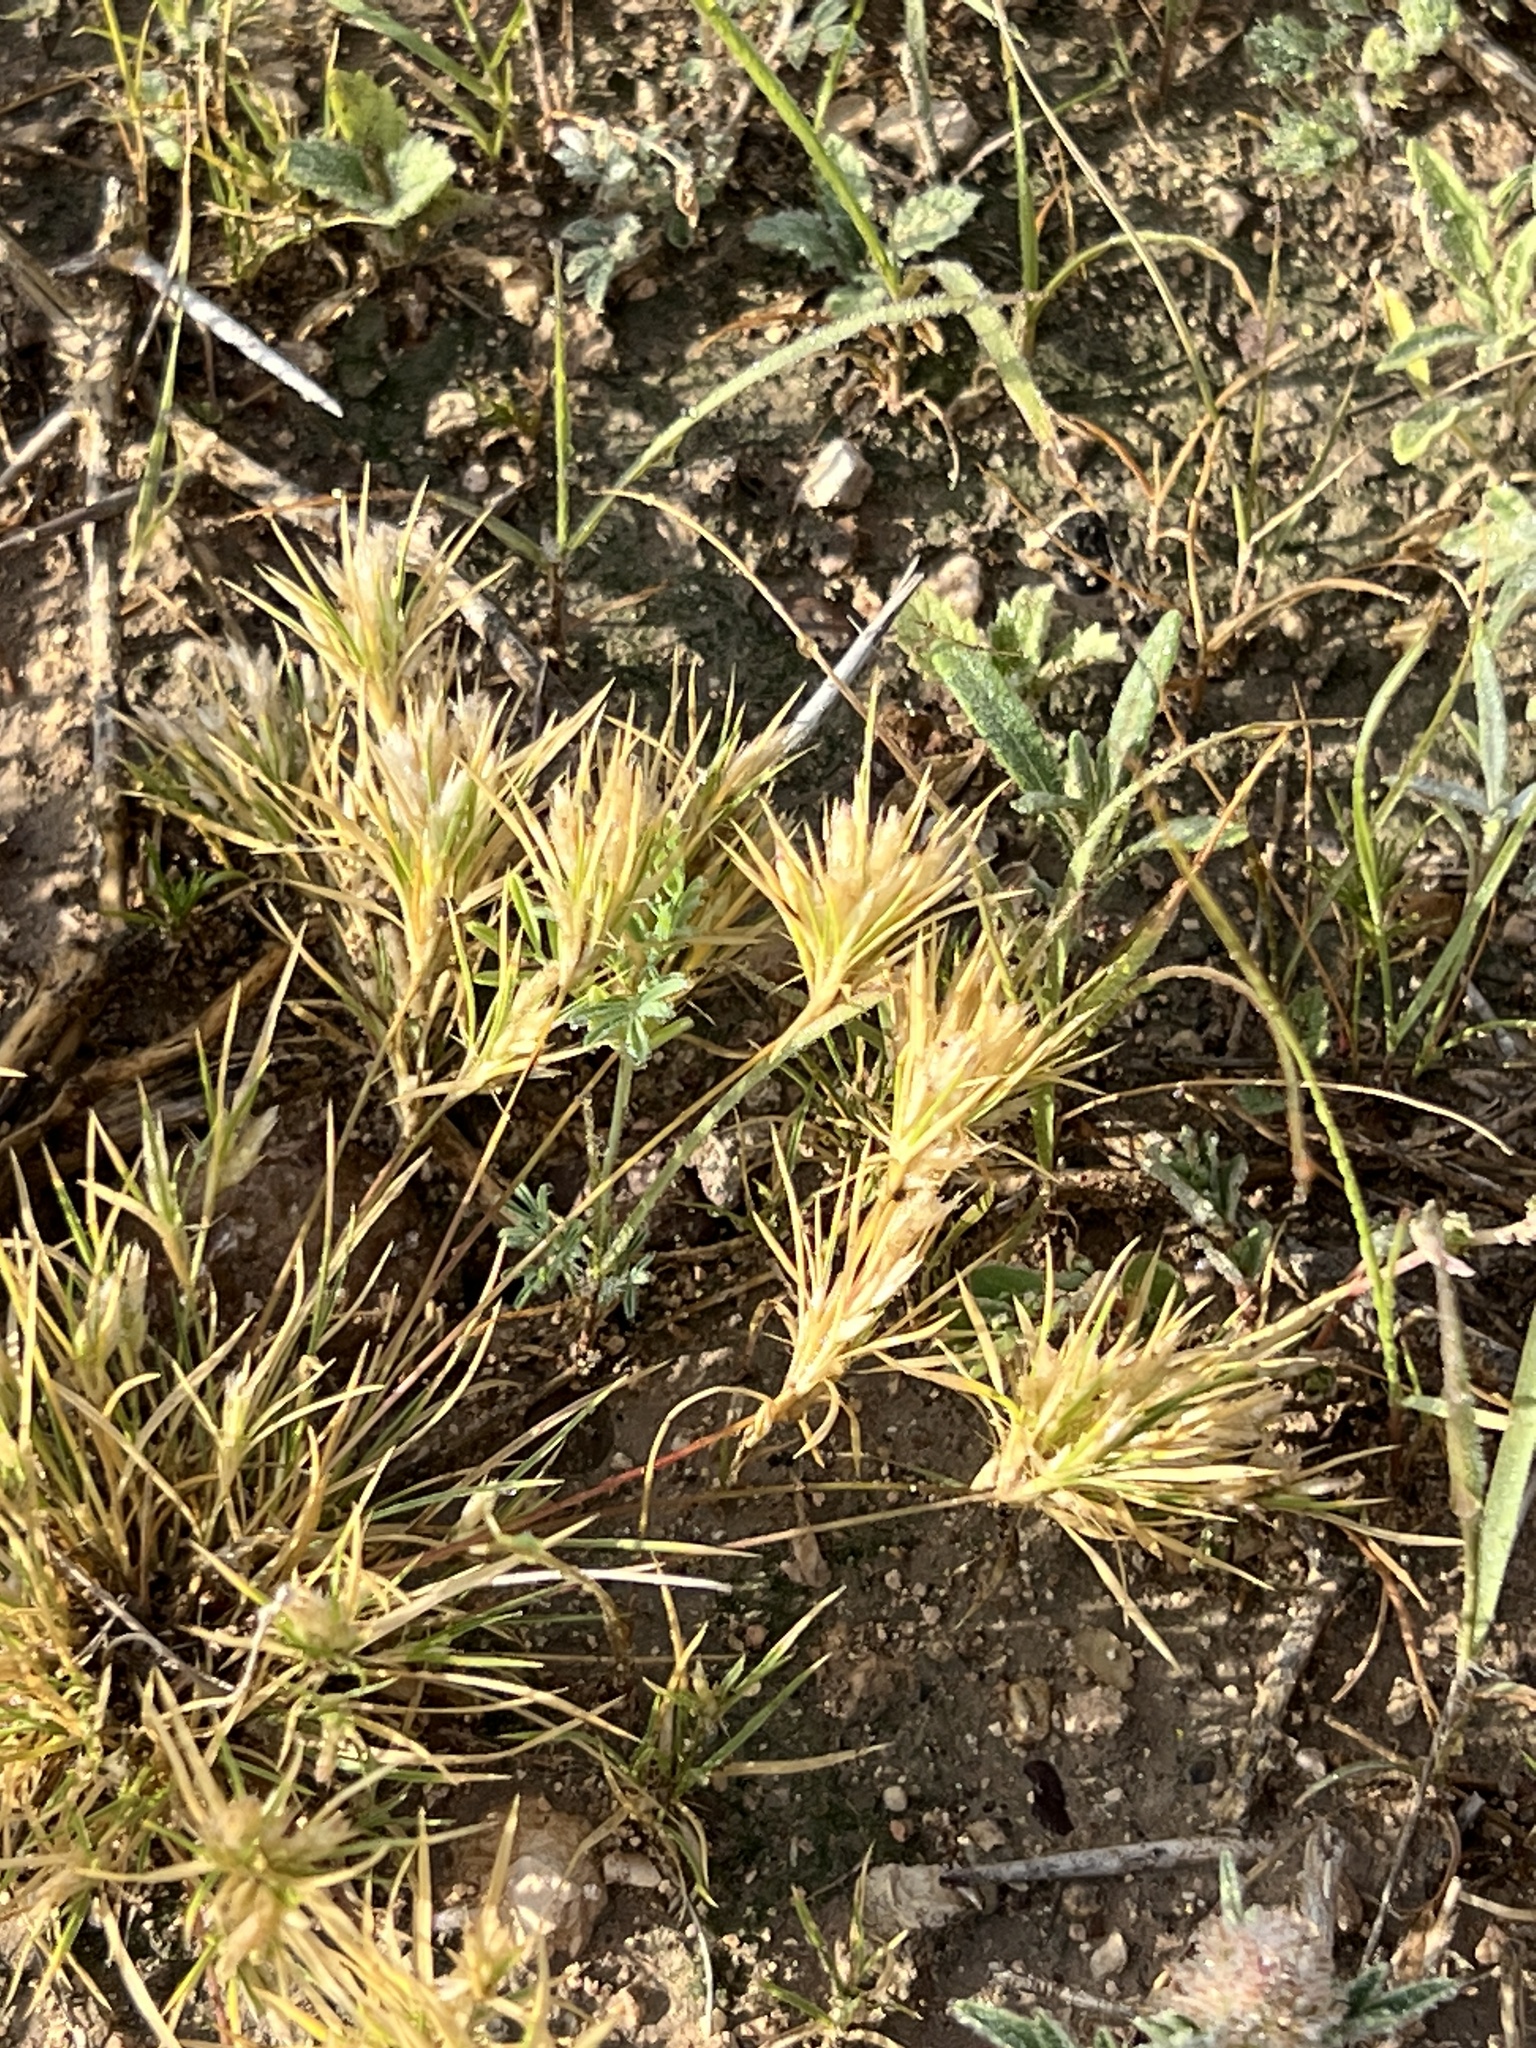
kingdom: Plantae
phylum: Tracheophyta
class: Liliopsida
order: Poales
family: Poaceae
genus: Dasyochloa
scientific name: Dasyochloa pulchella
